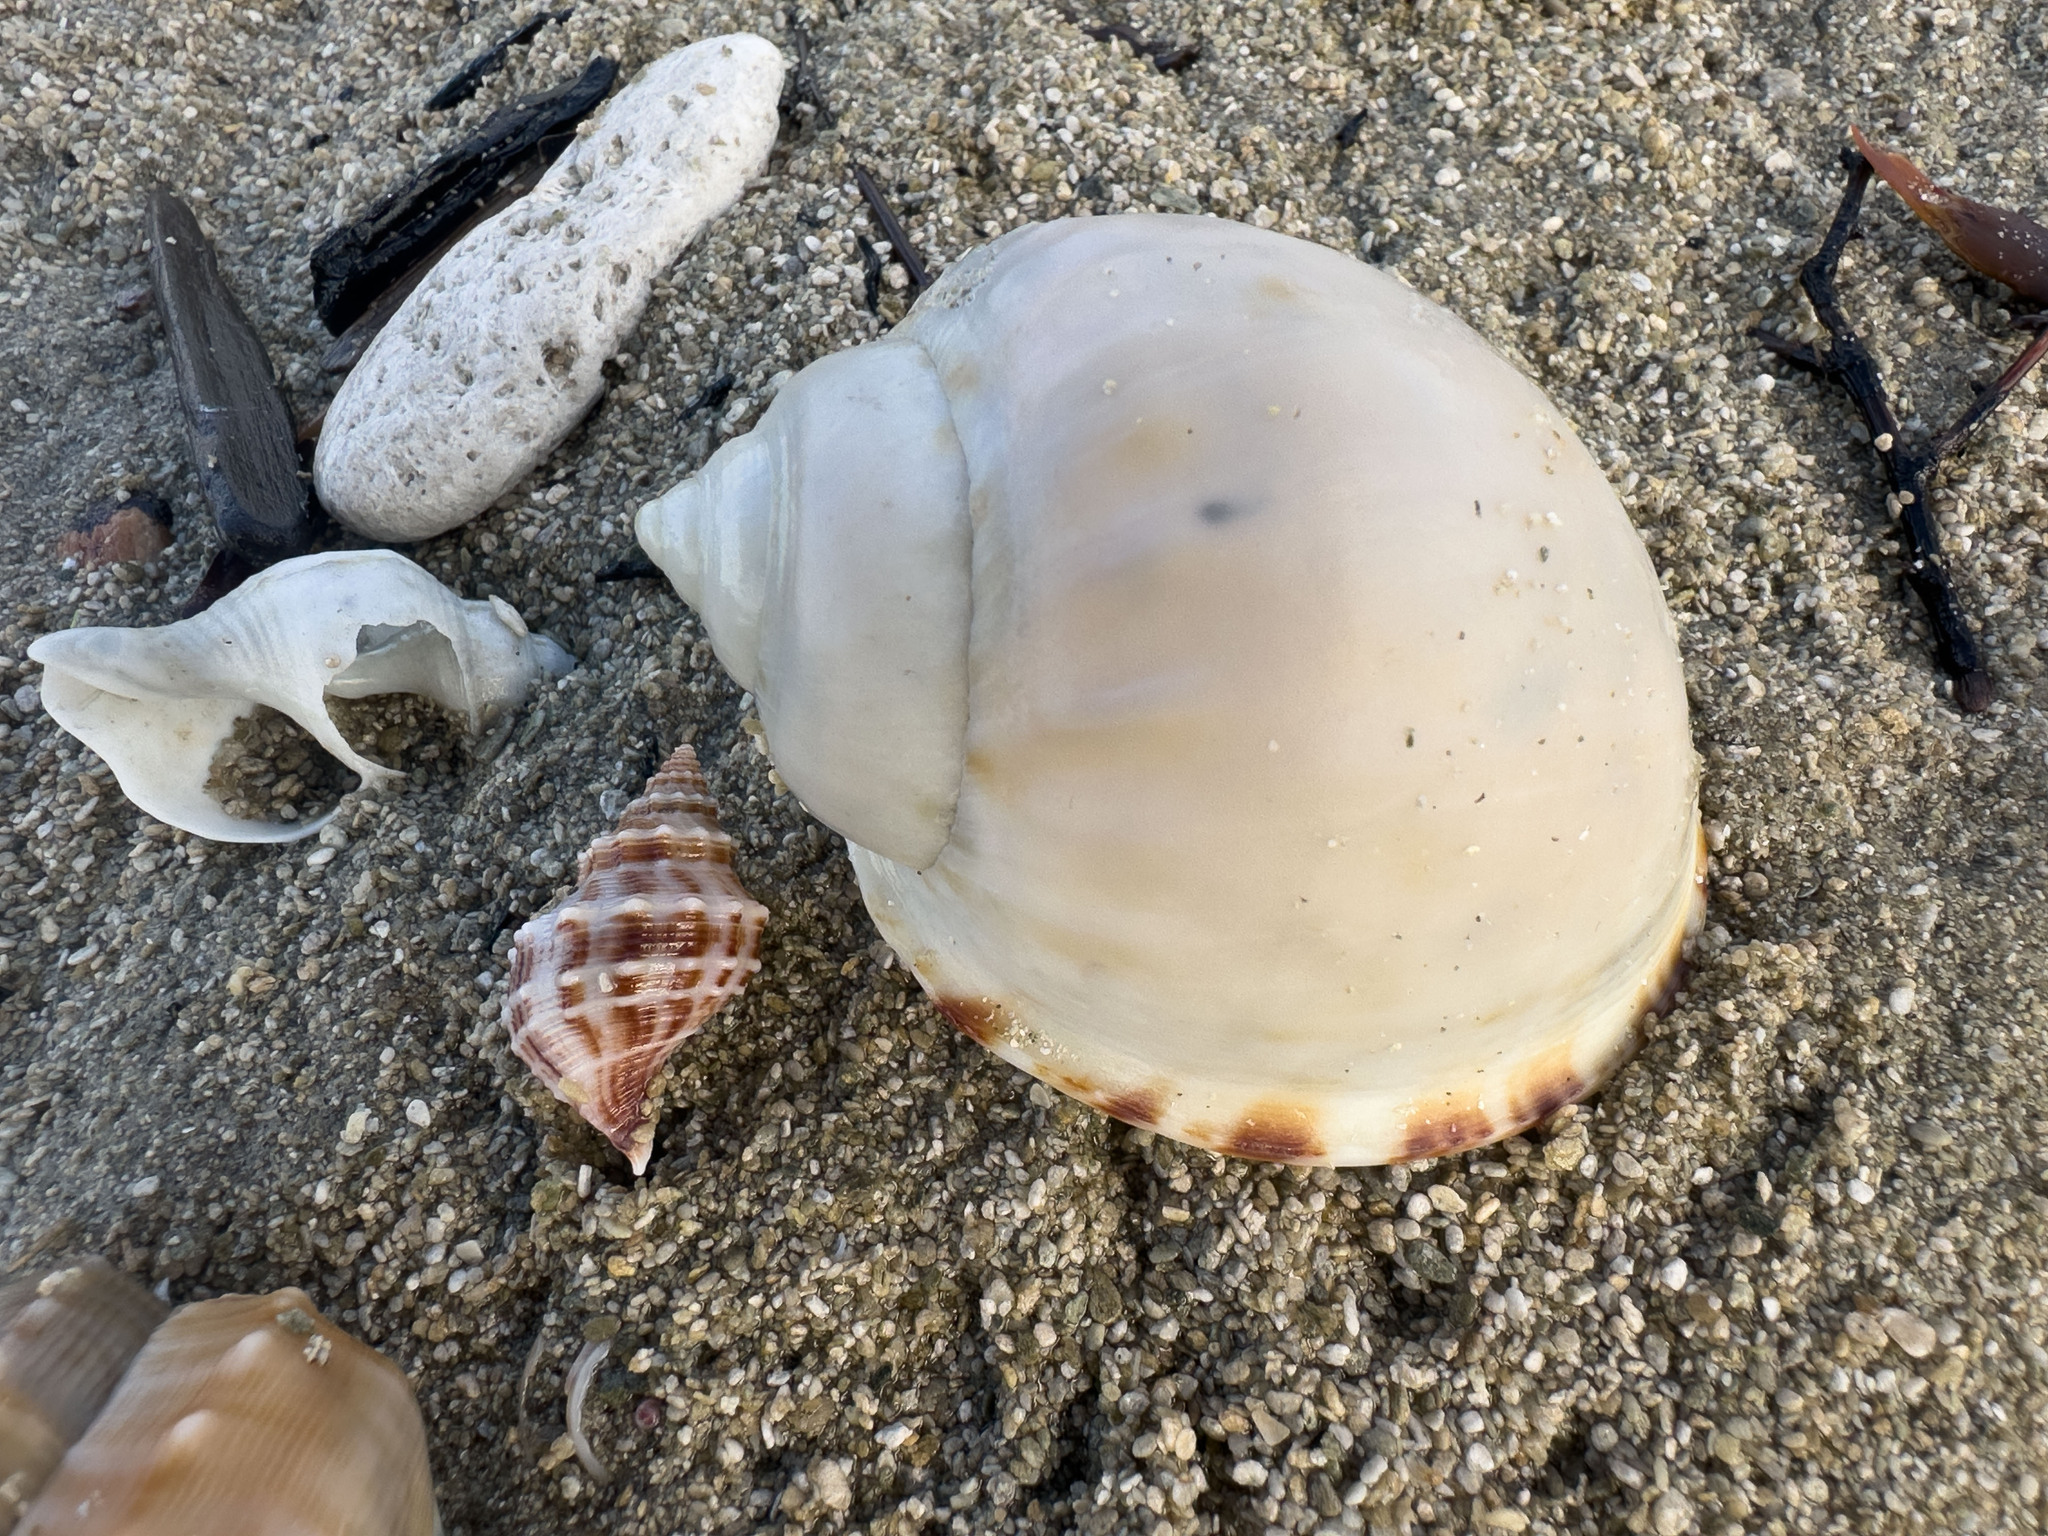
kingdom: Animalia
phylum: Mollusca
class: Gastropoda
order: Littorinimorpha
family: Cassidae
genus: Semicassis
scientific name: Semicassis pyrum
